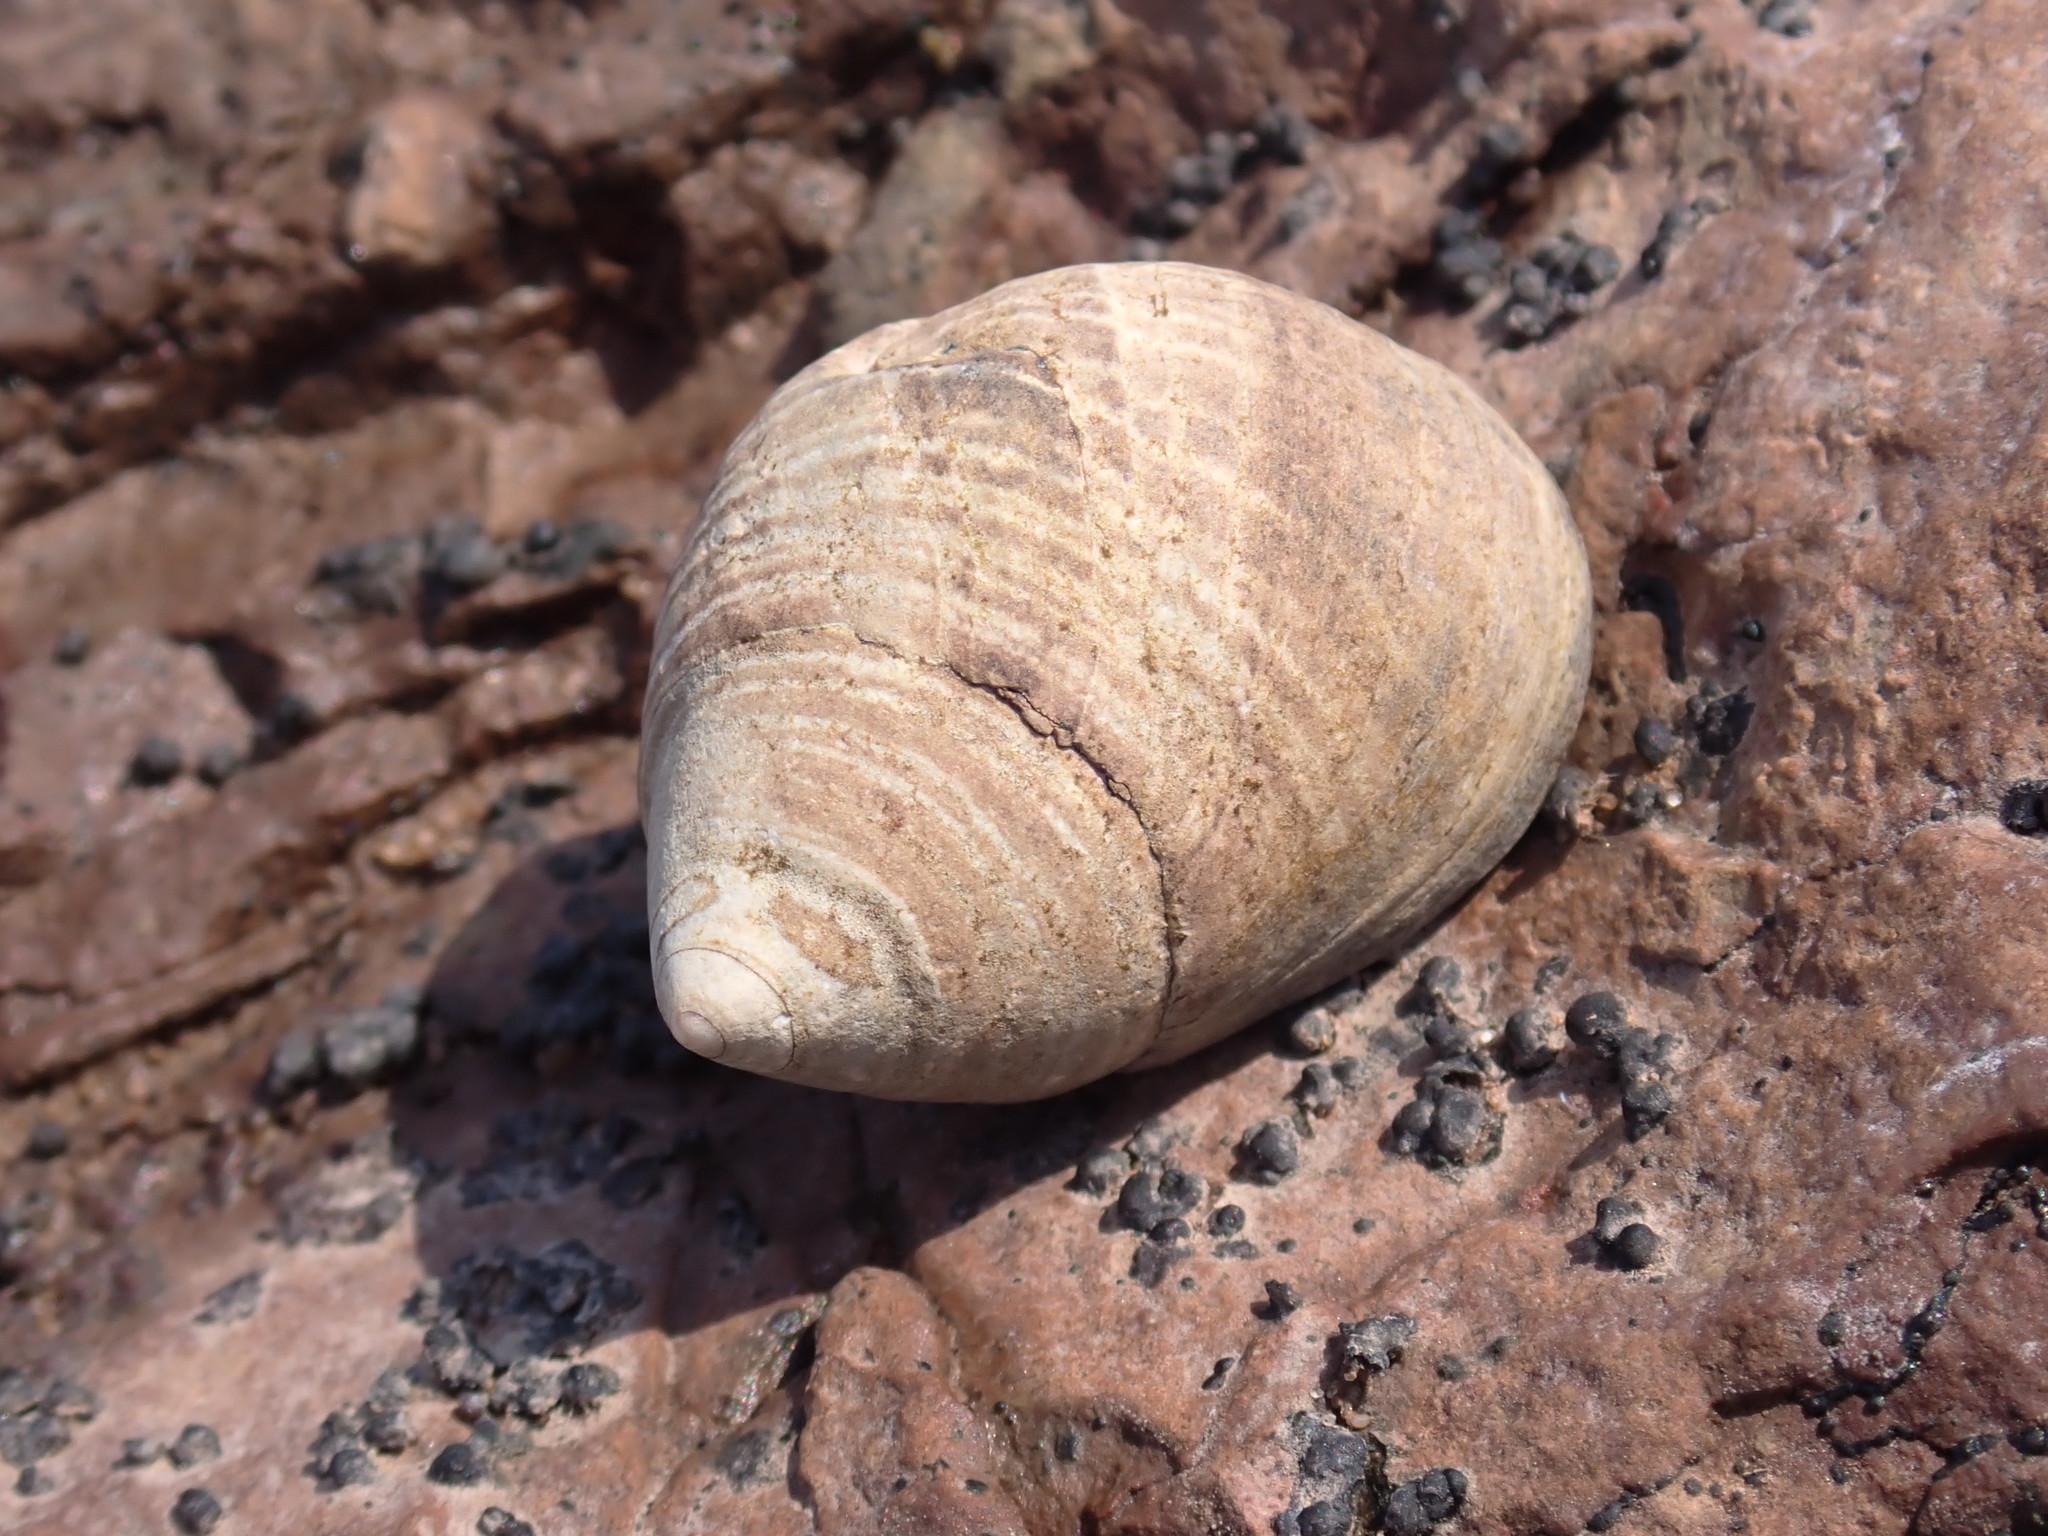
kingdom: Animalia
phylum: Mollusca
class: Gastropoda
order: Littorinimorpha
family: Littorinidae
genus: Littorina
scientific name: Littorina littorea
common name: Common periwinkle
